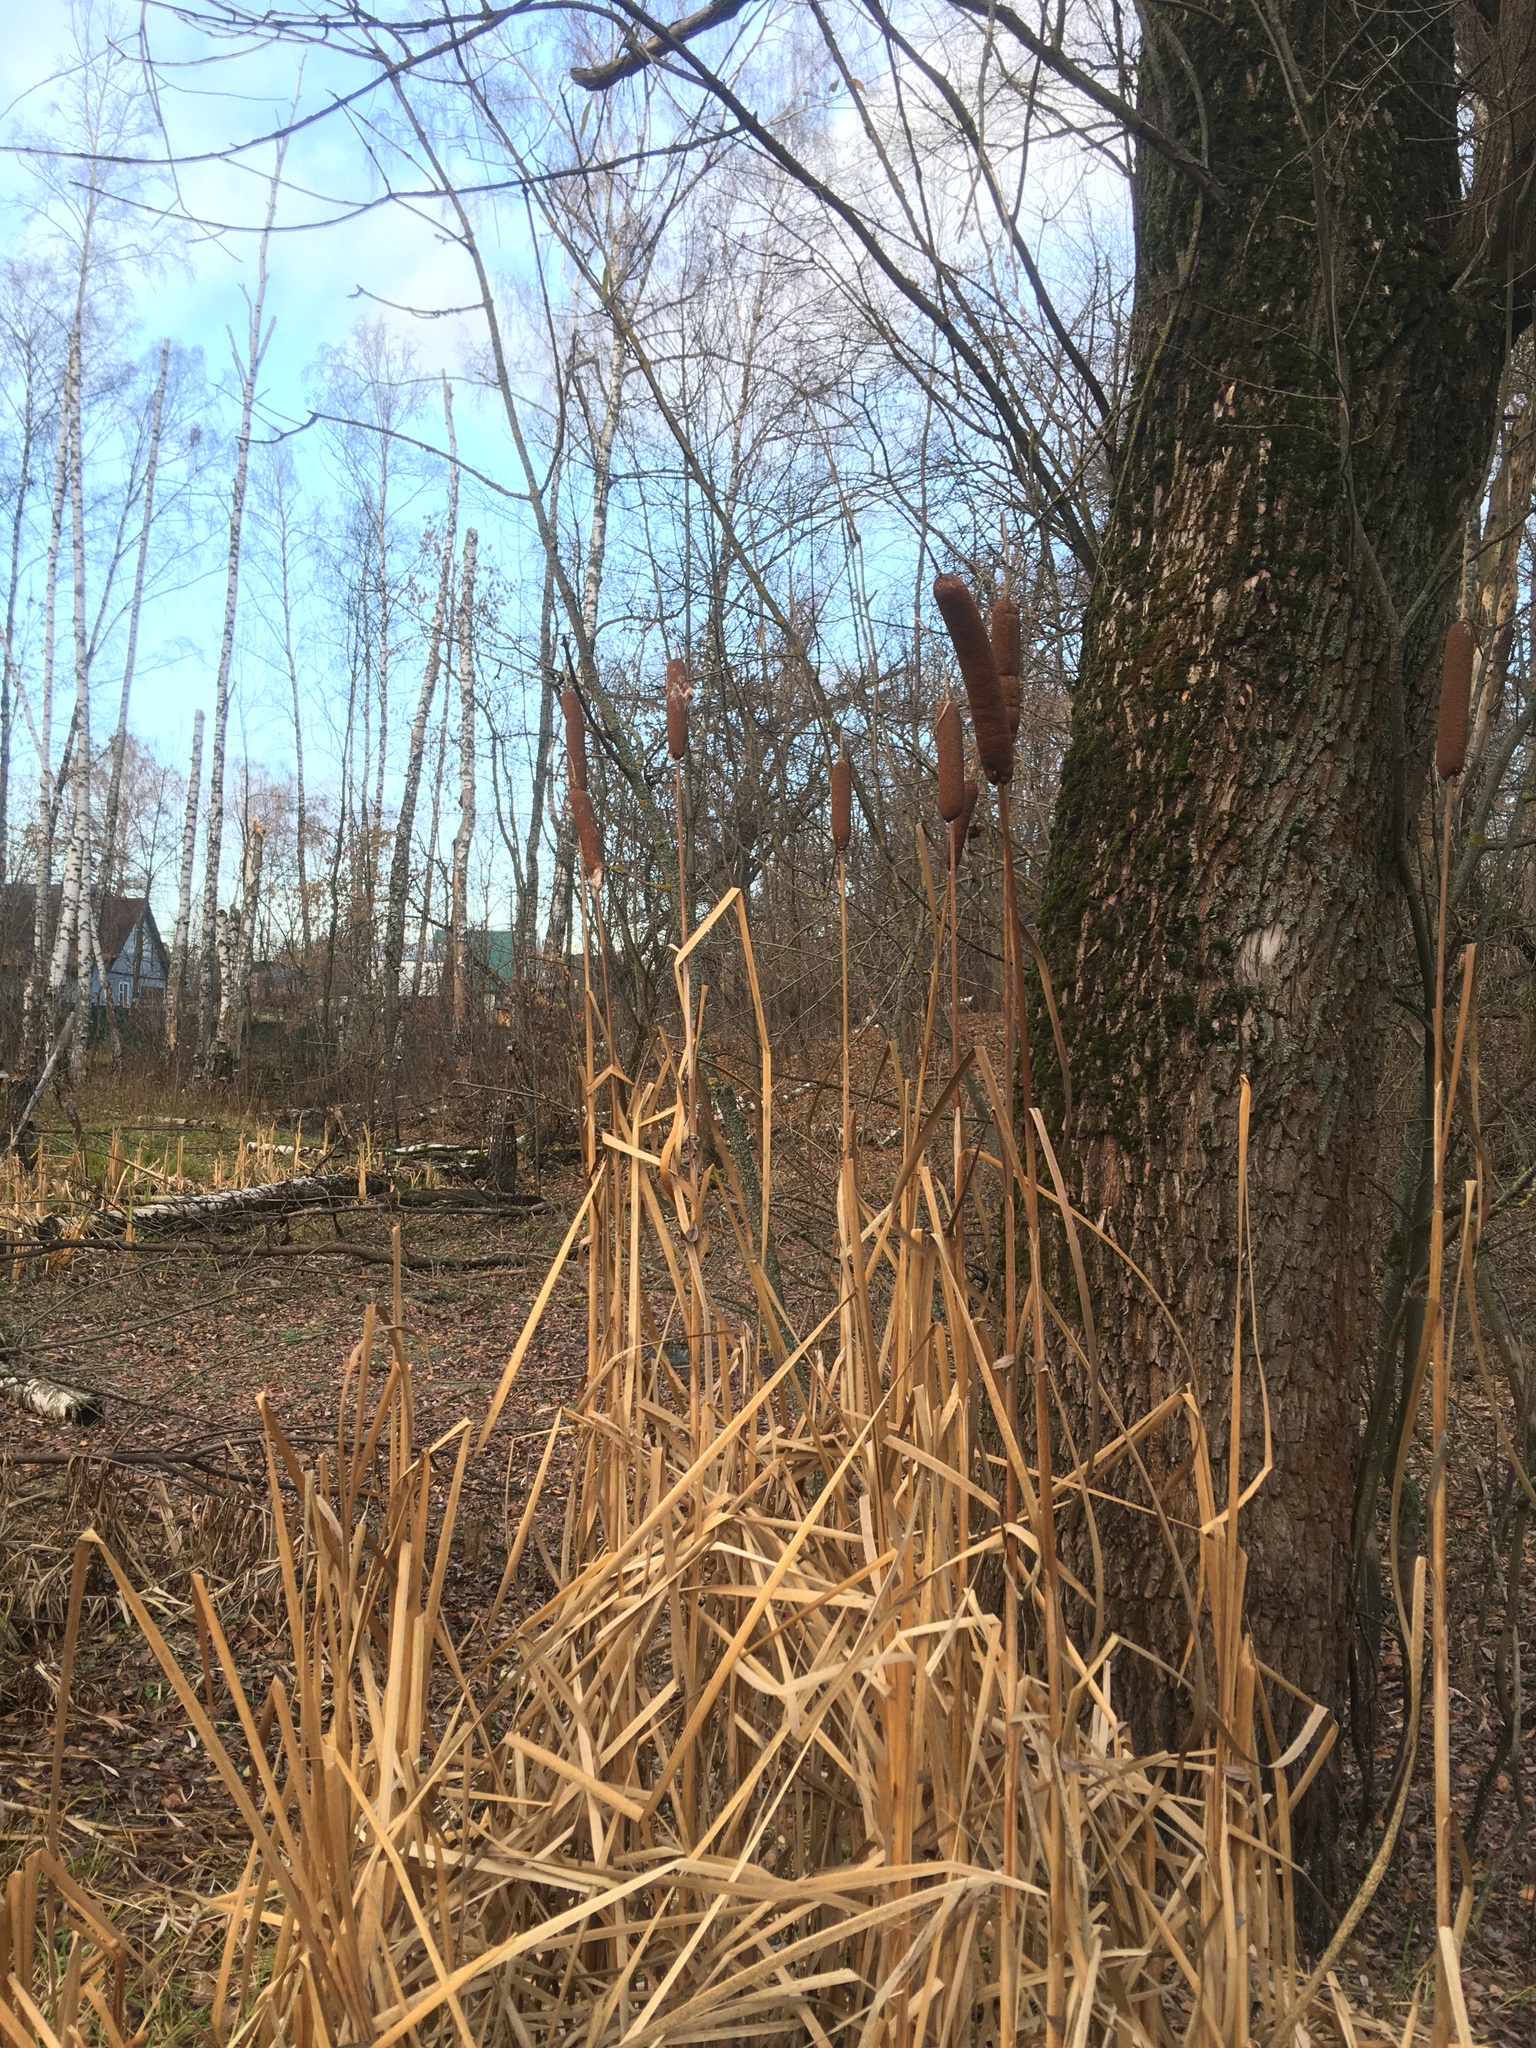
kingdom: Plantae
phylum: Tracheophyta
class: Liliopsida
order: Poales
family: Typhaceae
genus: Typha
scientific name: Typha latifolia
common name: Broadleaf cattail
